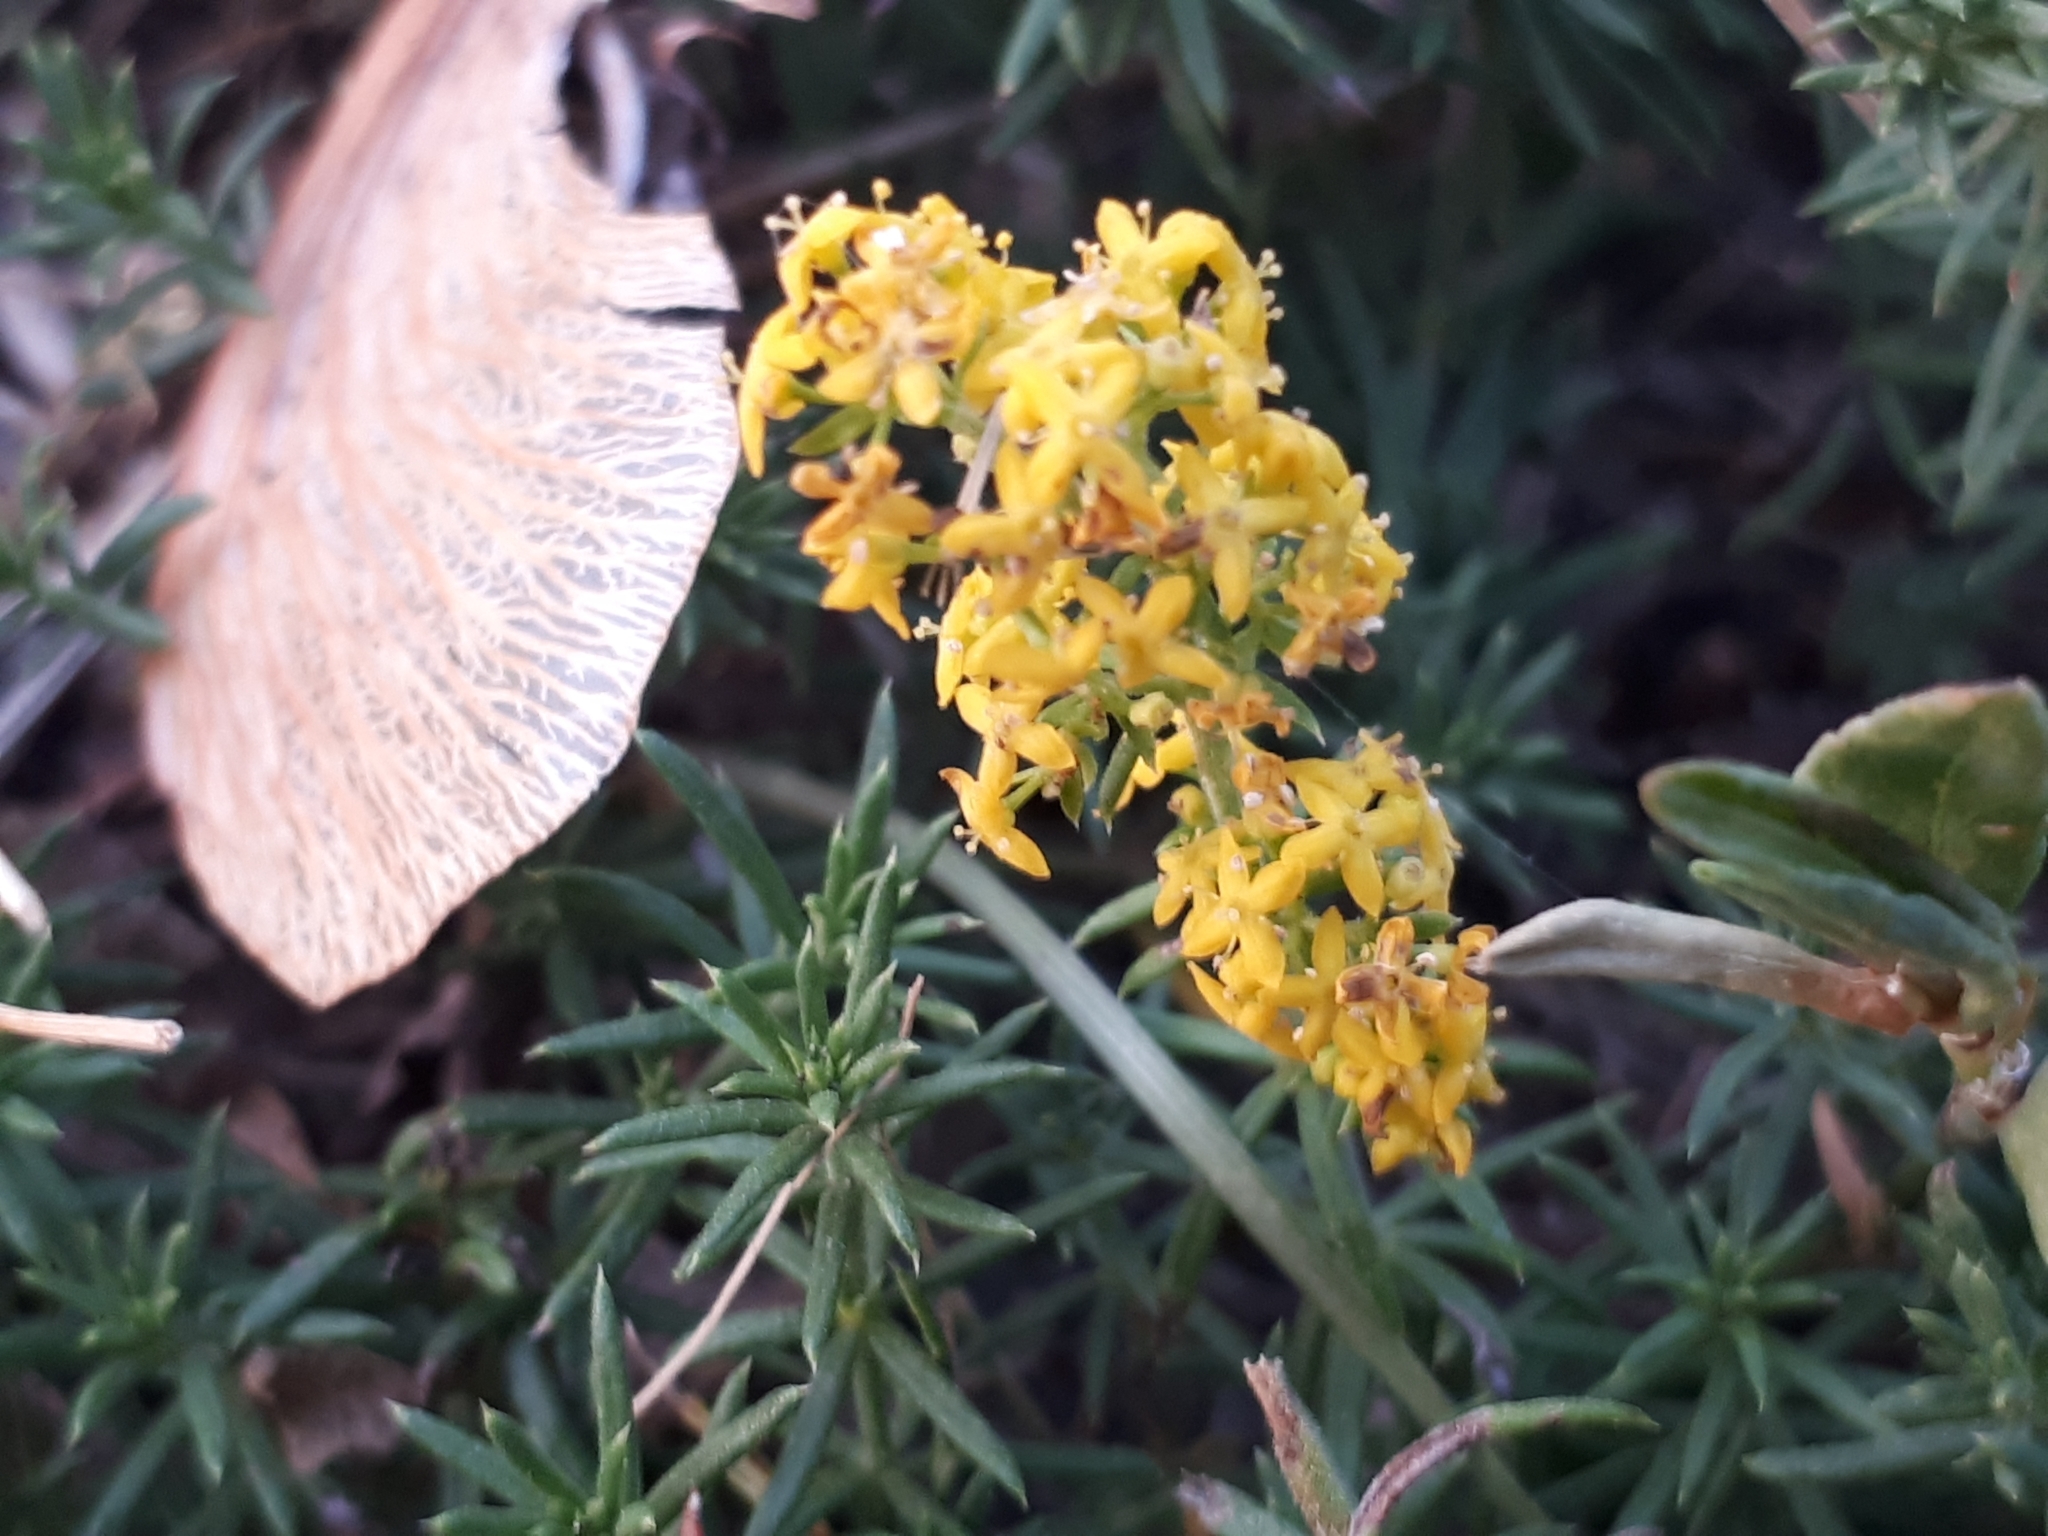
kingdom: Plantae
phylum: Tracheophyta
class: Magnoliopsida
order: Gentianales
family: Rubiaceae
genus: Galium
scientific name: Galium verum
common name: Lady's bedstraw
